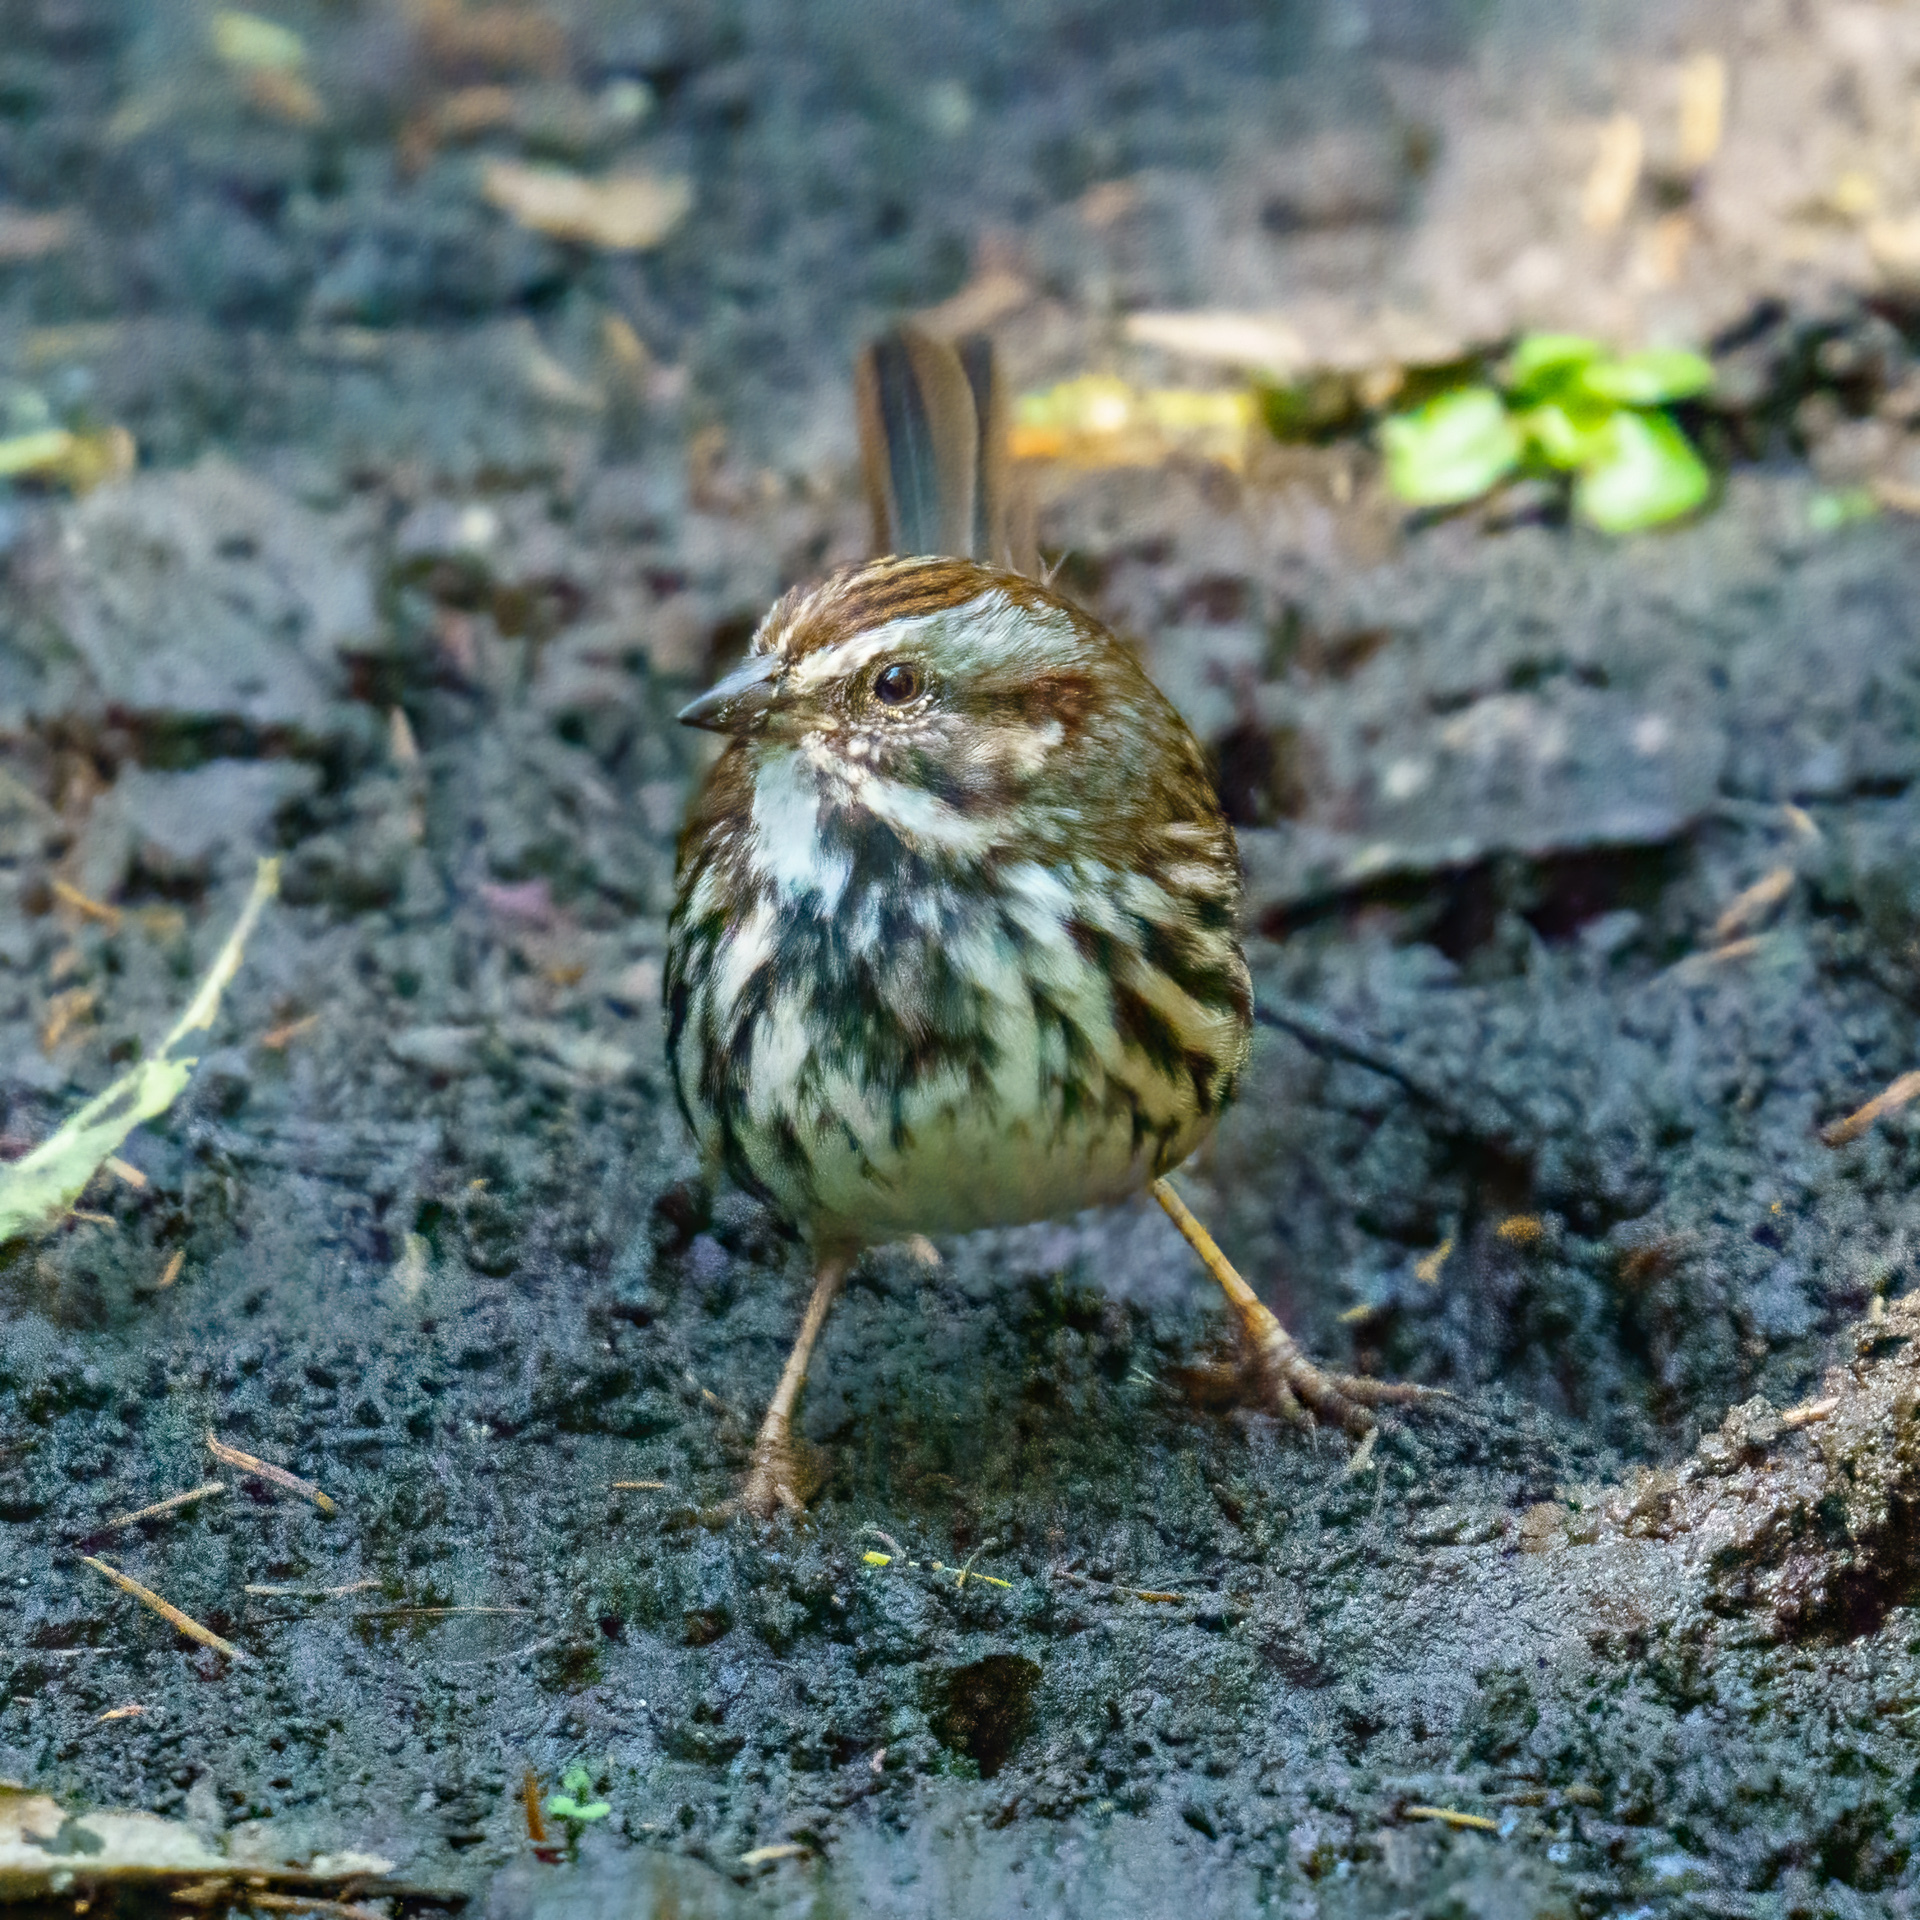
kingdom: Animalia
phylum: Chordata
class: Aves
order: Passeriformes
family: Passerellidae
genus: Melospiza
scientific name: Melospiza melodia
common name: Song sparrow
